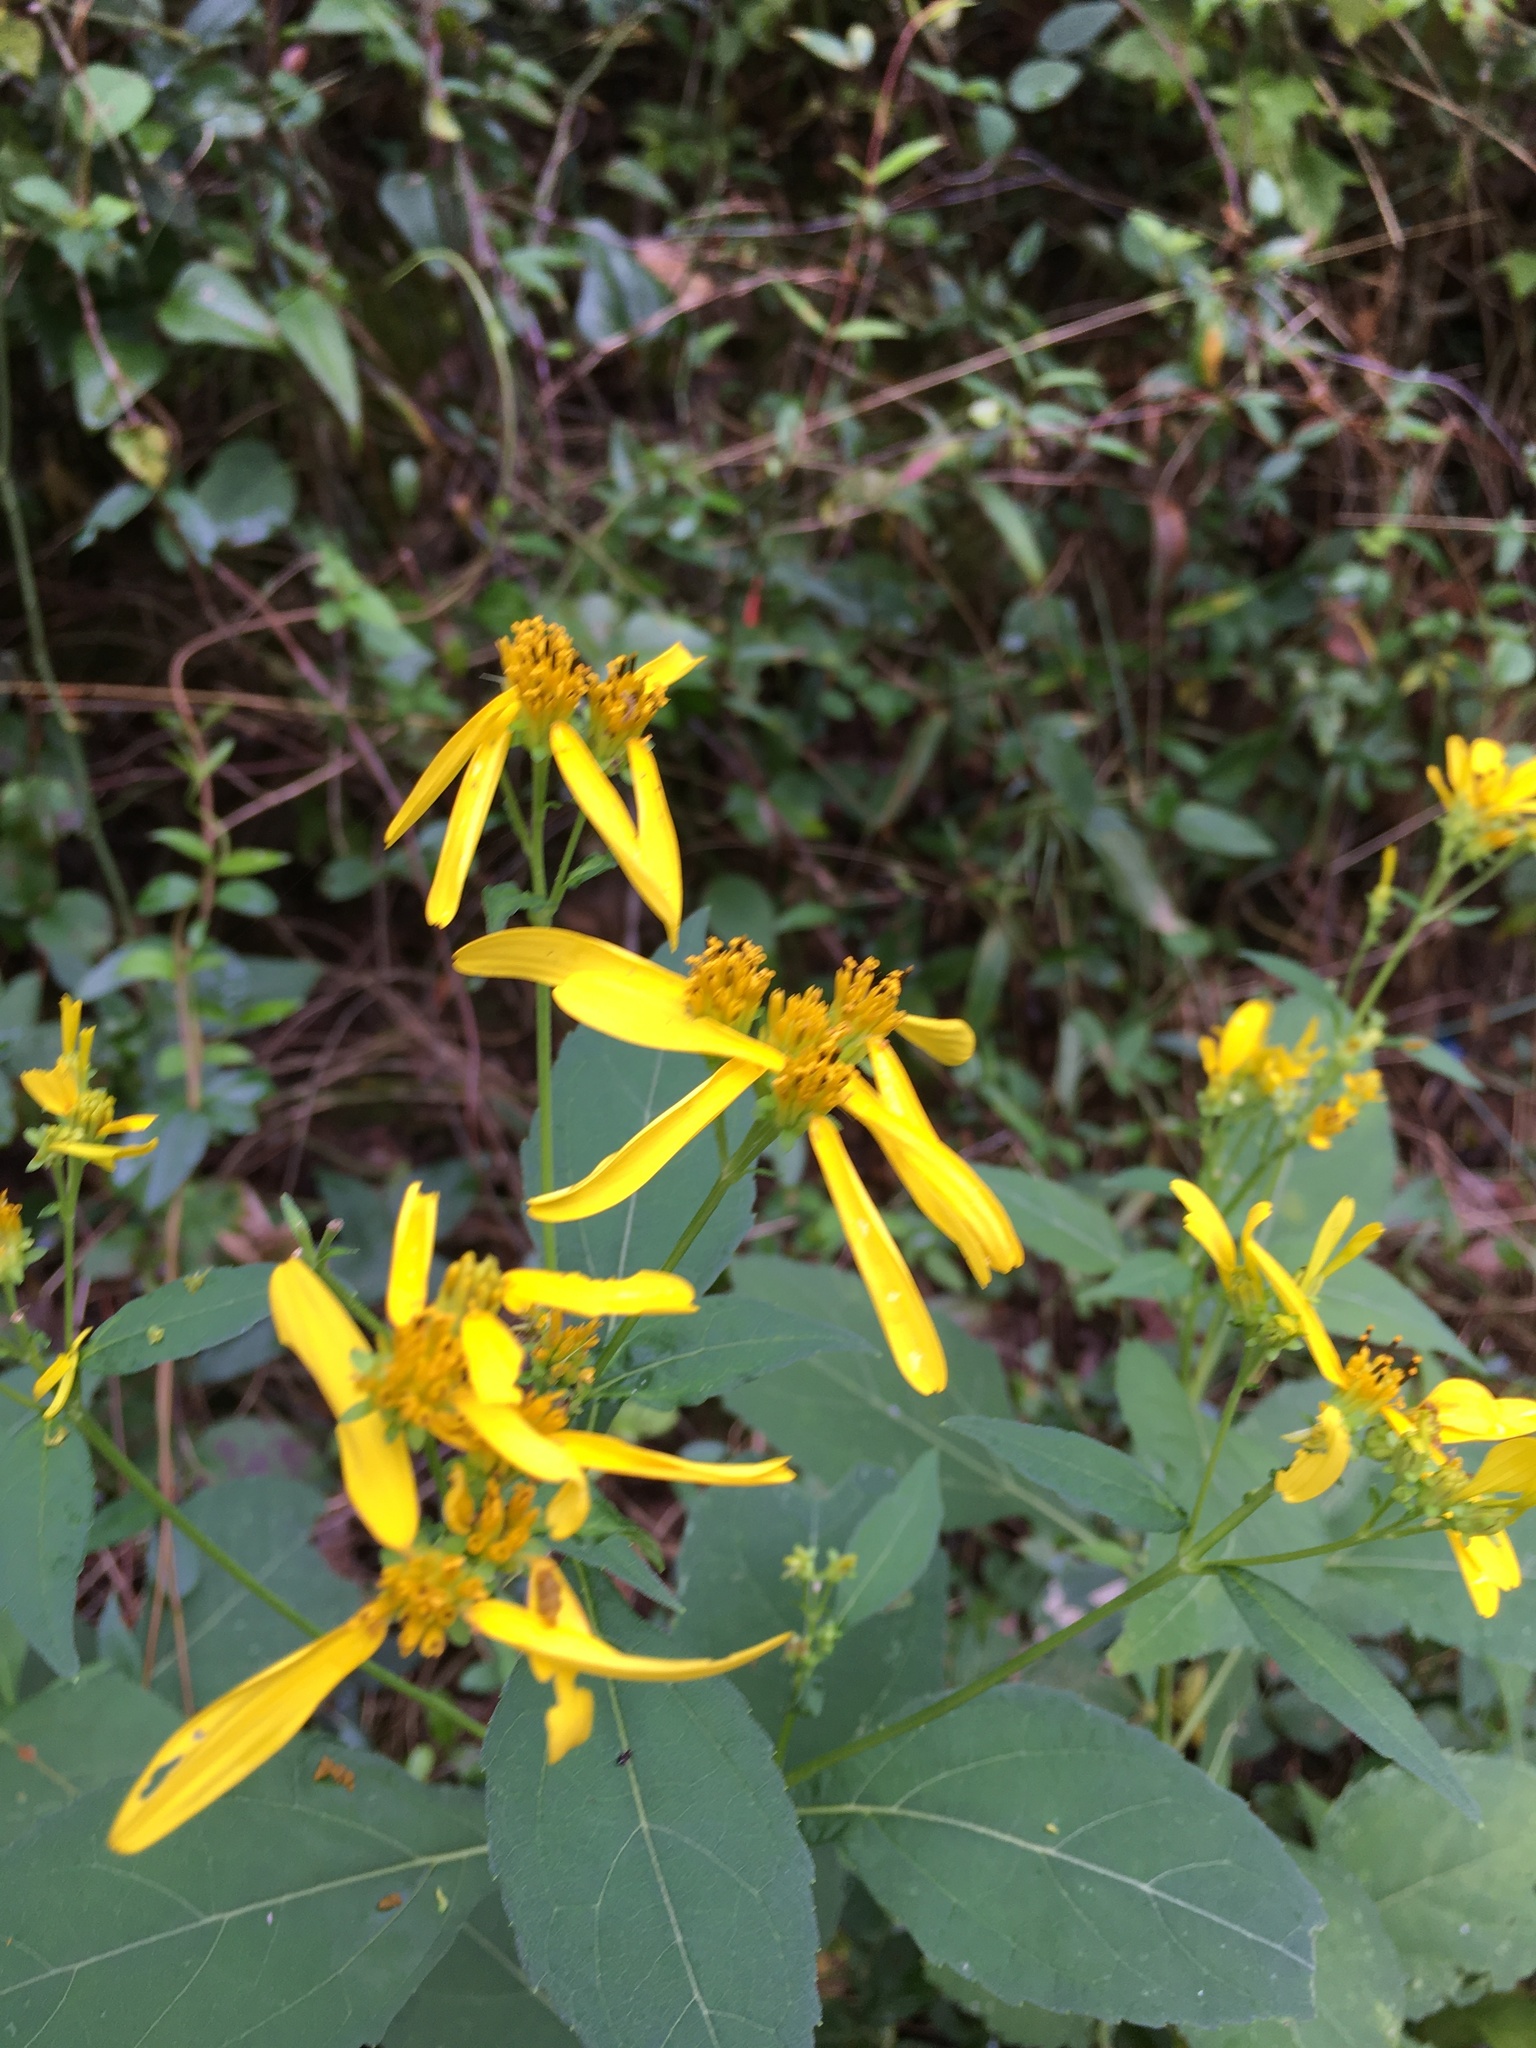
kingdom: Plantae
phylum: Tracheophyta
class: Magnoliopsida
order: Asterales
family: Asteraceae
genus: Verbesina
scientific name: Verbesina occidentalis
